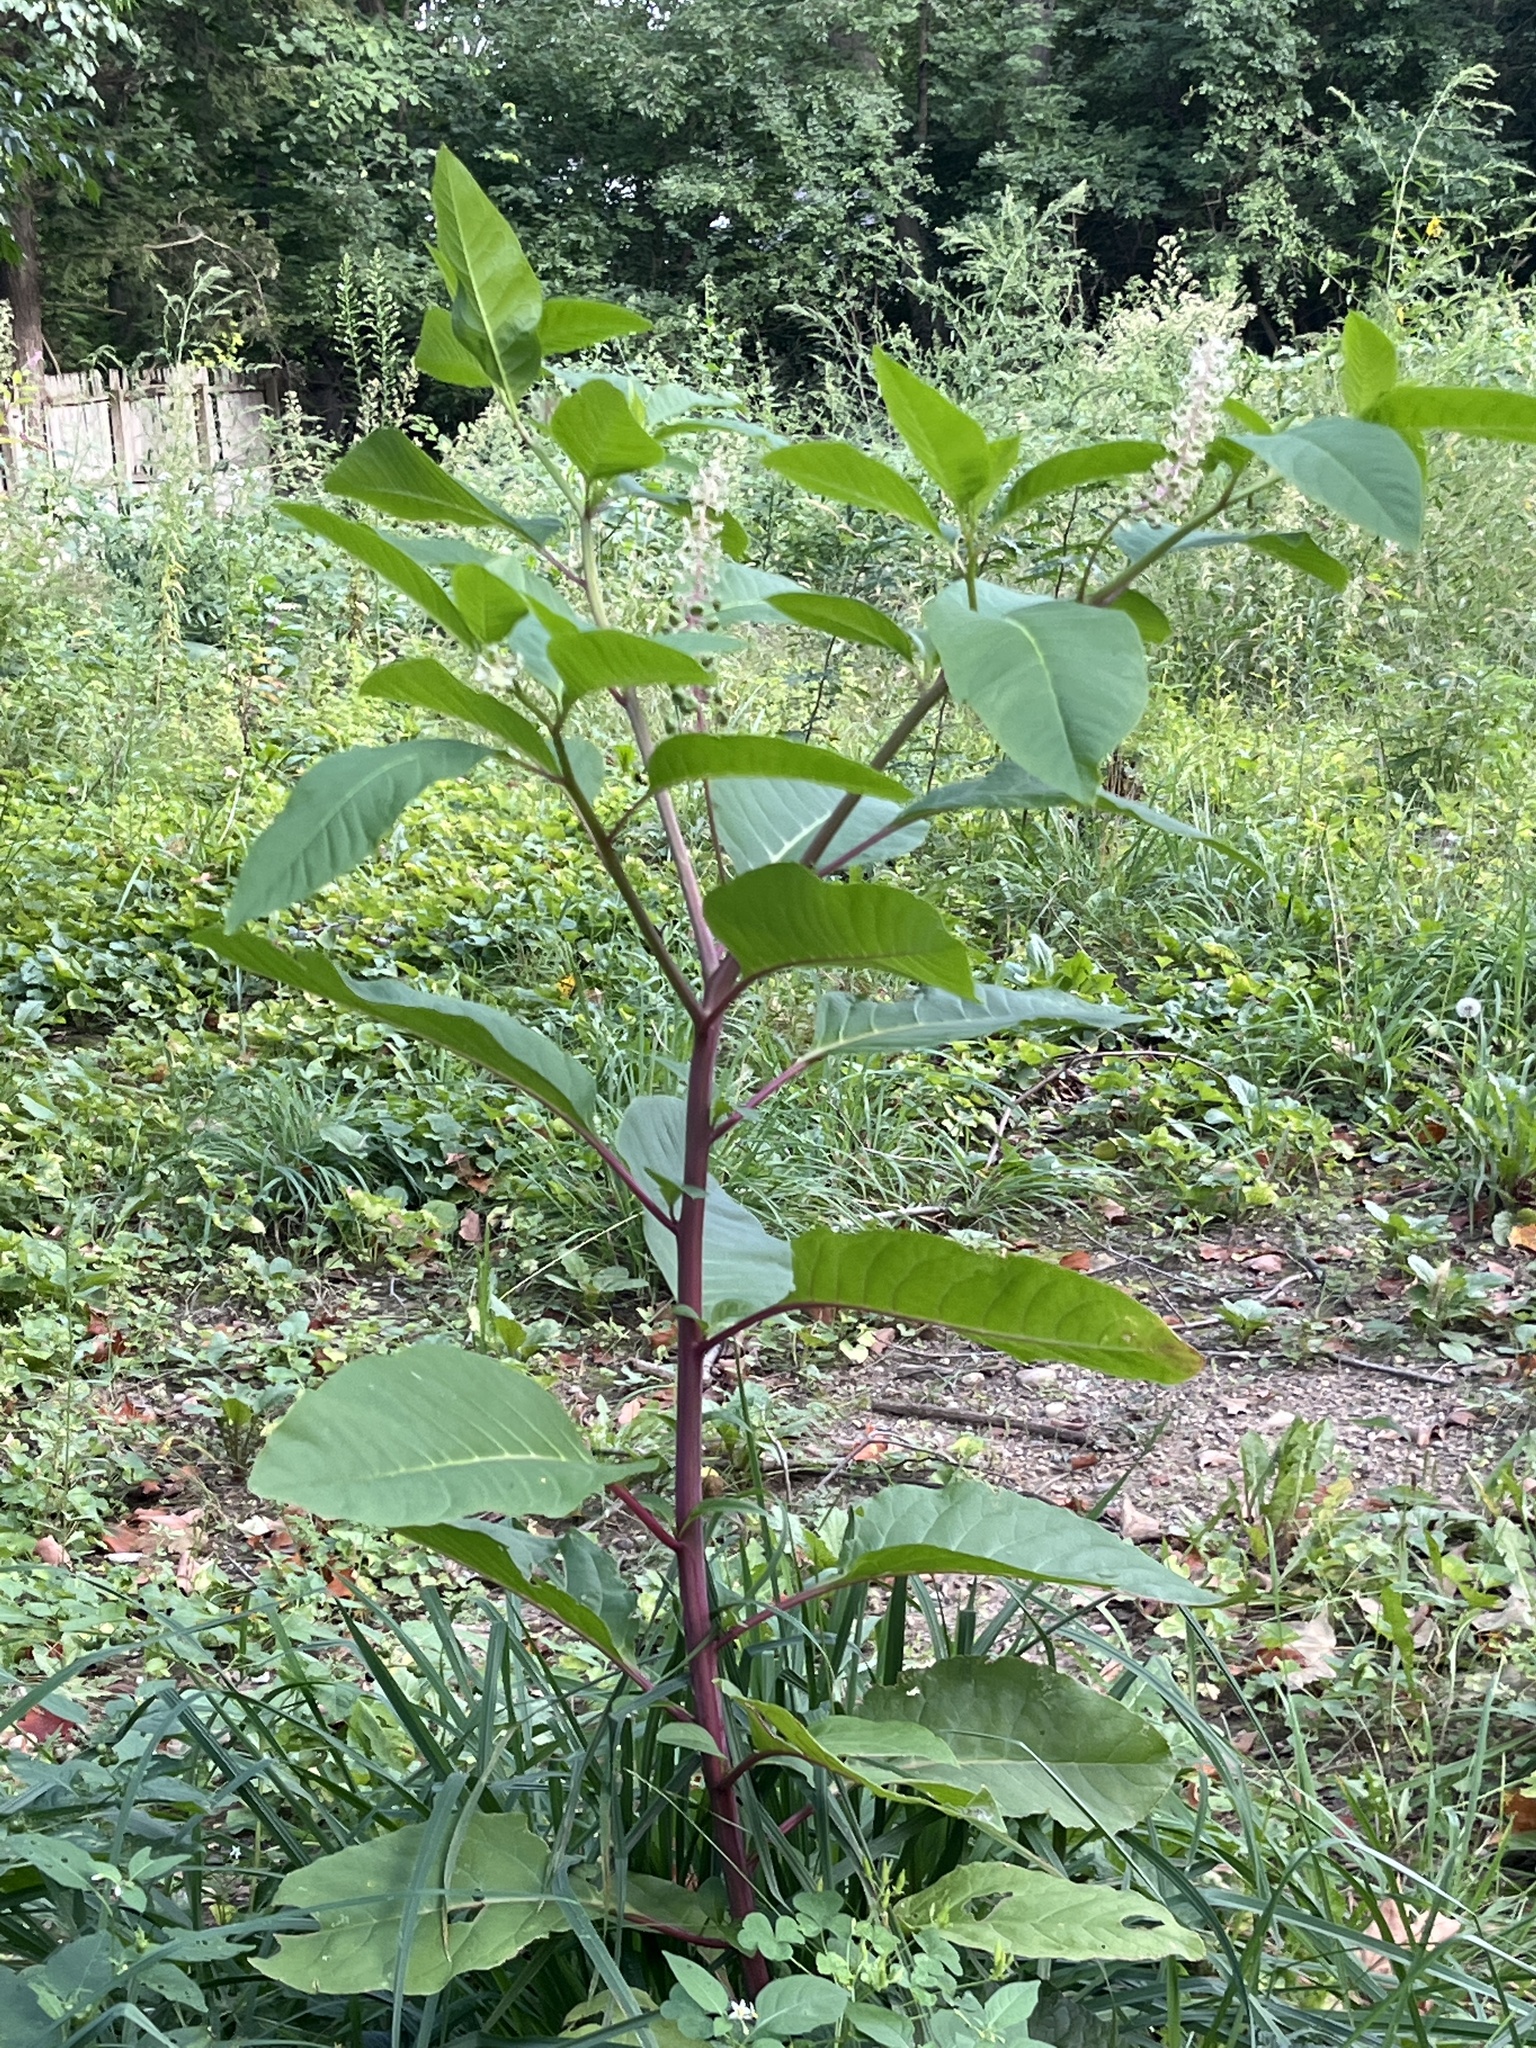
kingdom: Plantae
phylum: Tracheophyta
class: Magnoliopsida
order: Caryophyllales
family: Phytolaccaceae
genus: Phytolacca
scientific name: Phytolacca americana
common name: American pokeweed
